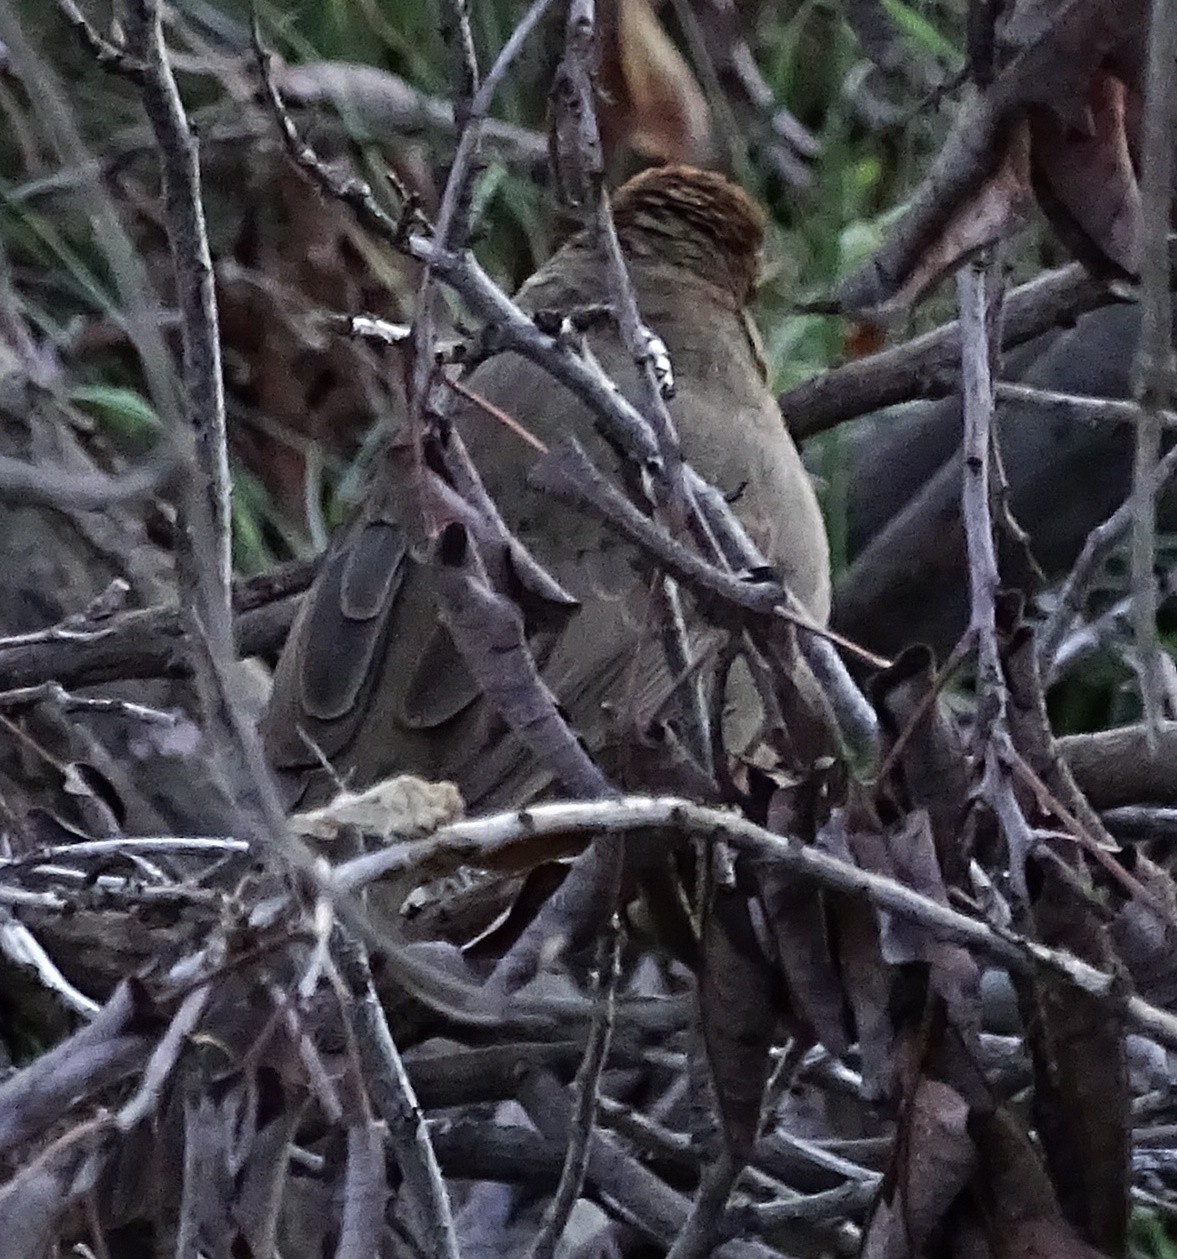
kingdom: Animalia
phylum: Chordata
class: Aves
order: Passeriformes
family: Passerellidae
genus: Melozone
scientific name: Melozone crissalis
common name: California towhee
